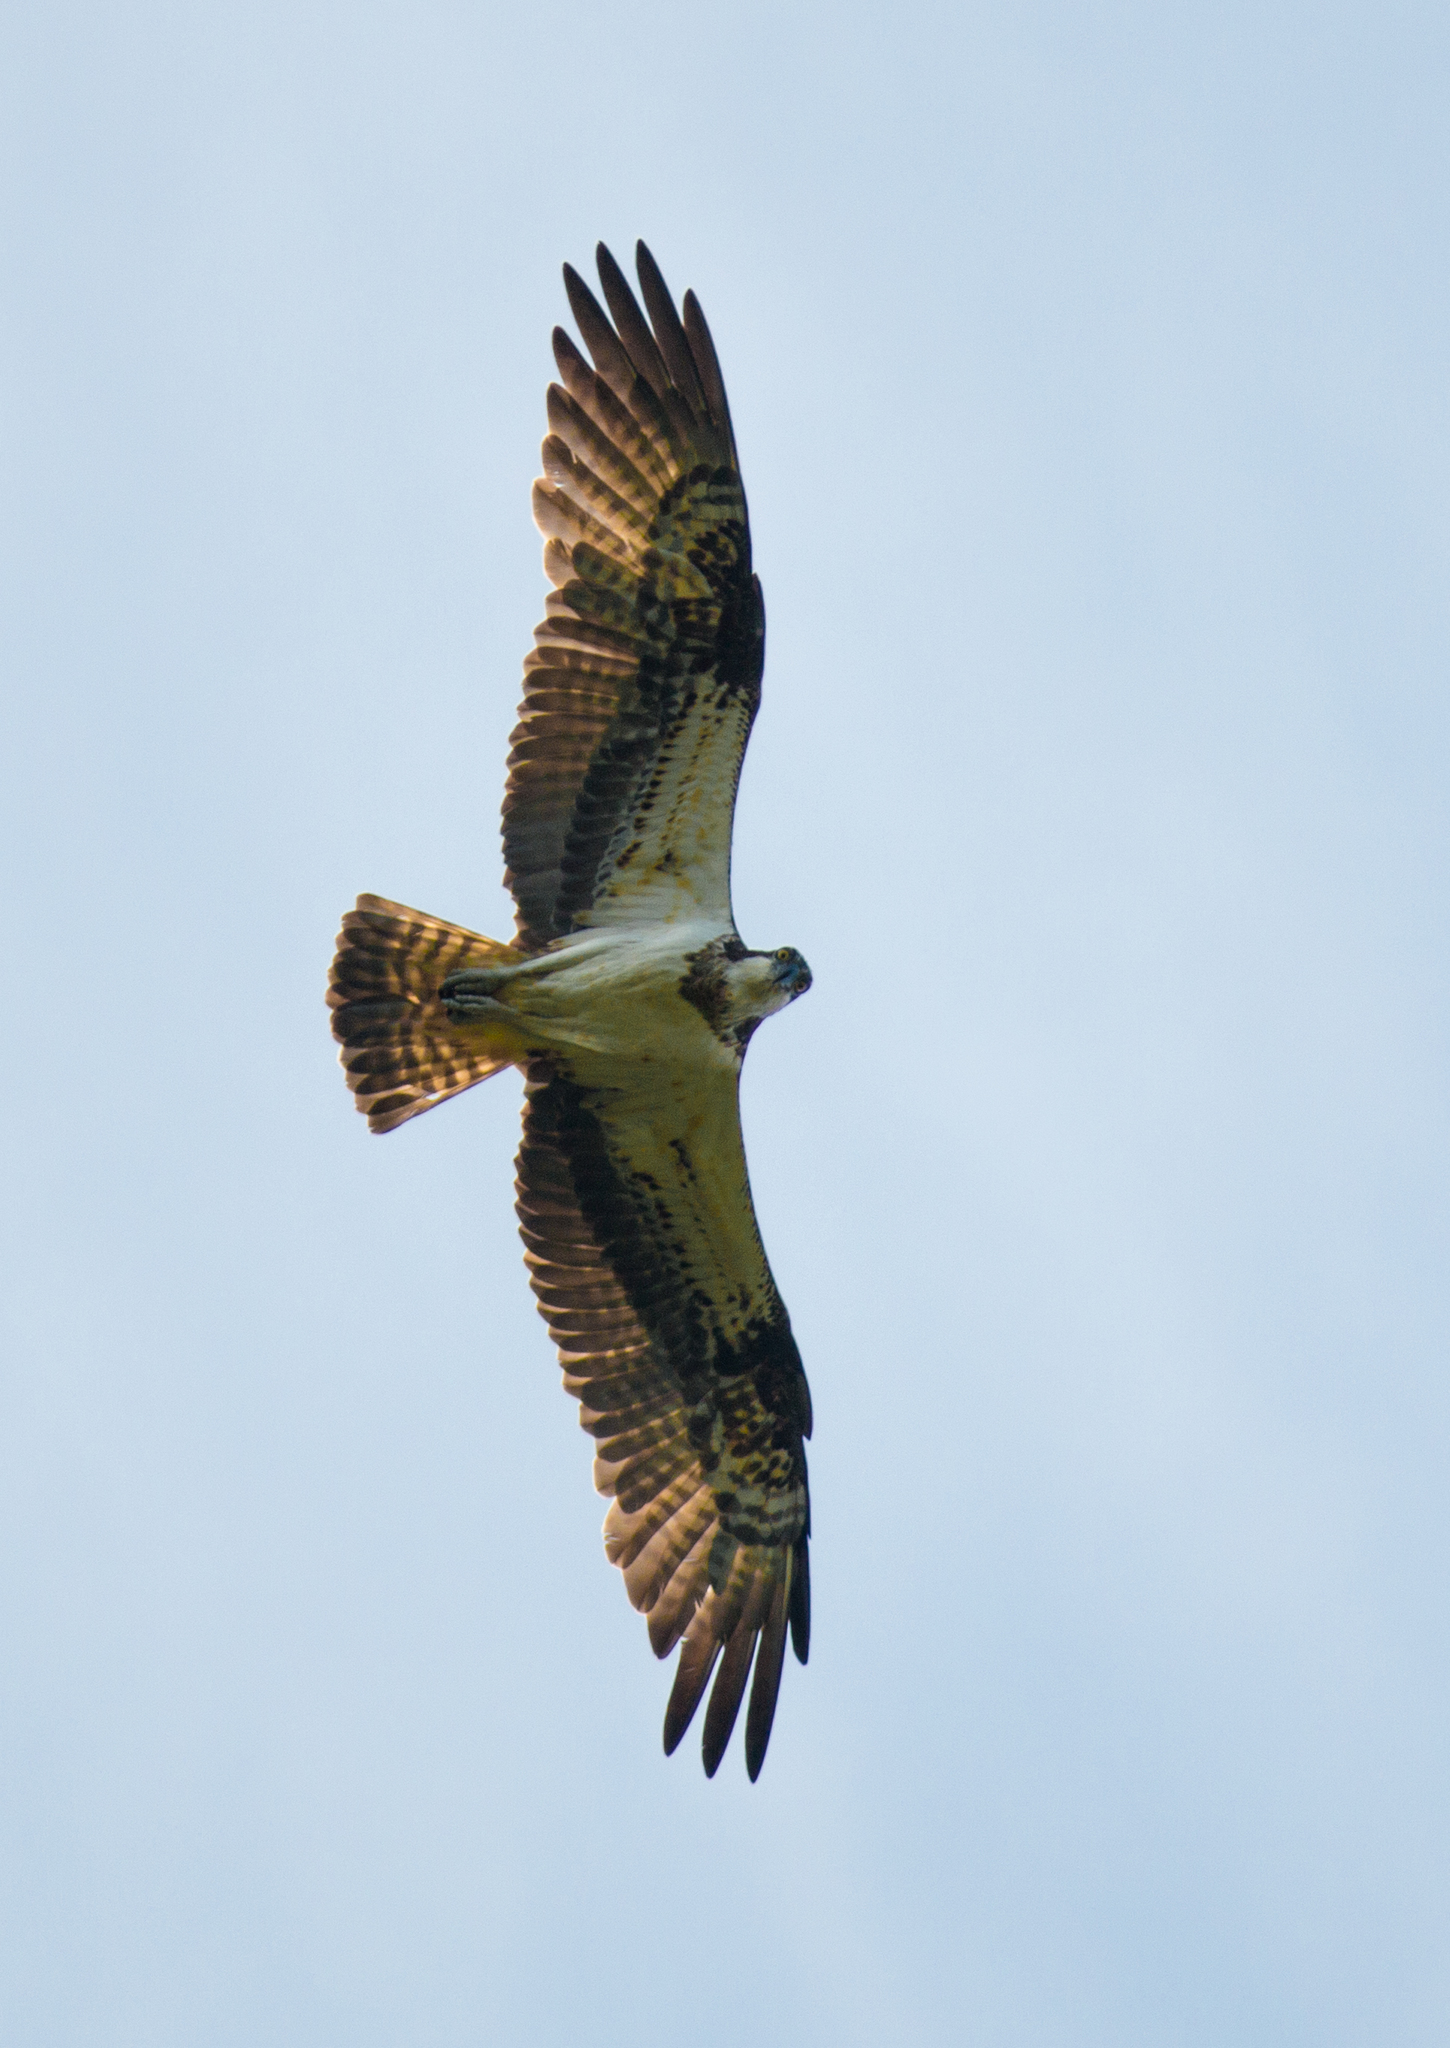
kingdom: Animalia
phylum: Chordata
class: Aves
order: Accipitriformes
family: Pandionidae
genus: Pandion
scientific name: Pandion haliaetus
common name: Osprey
